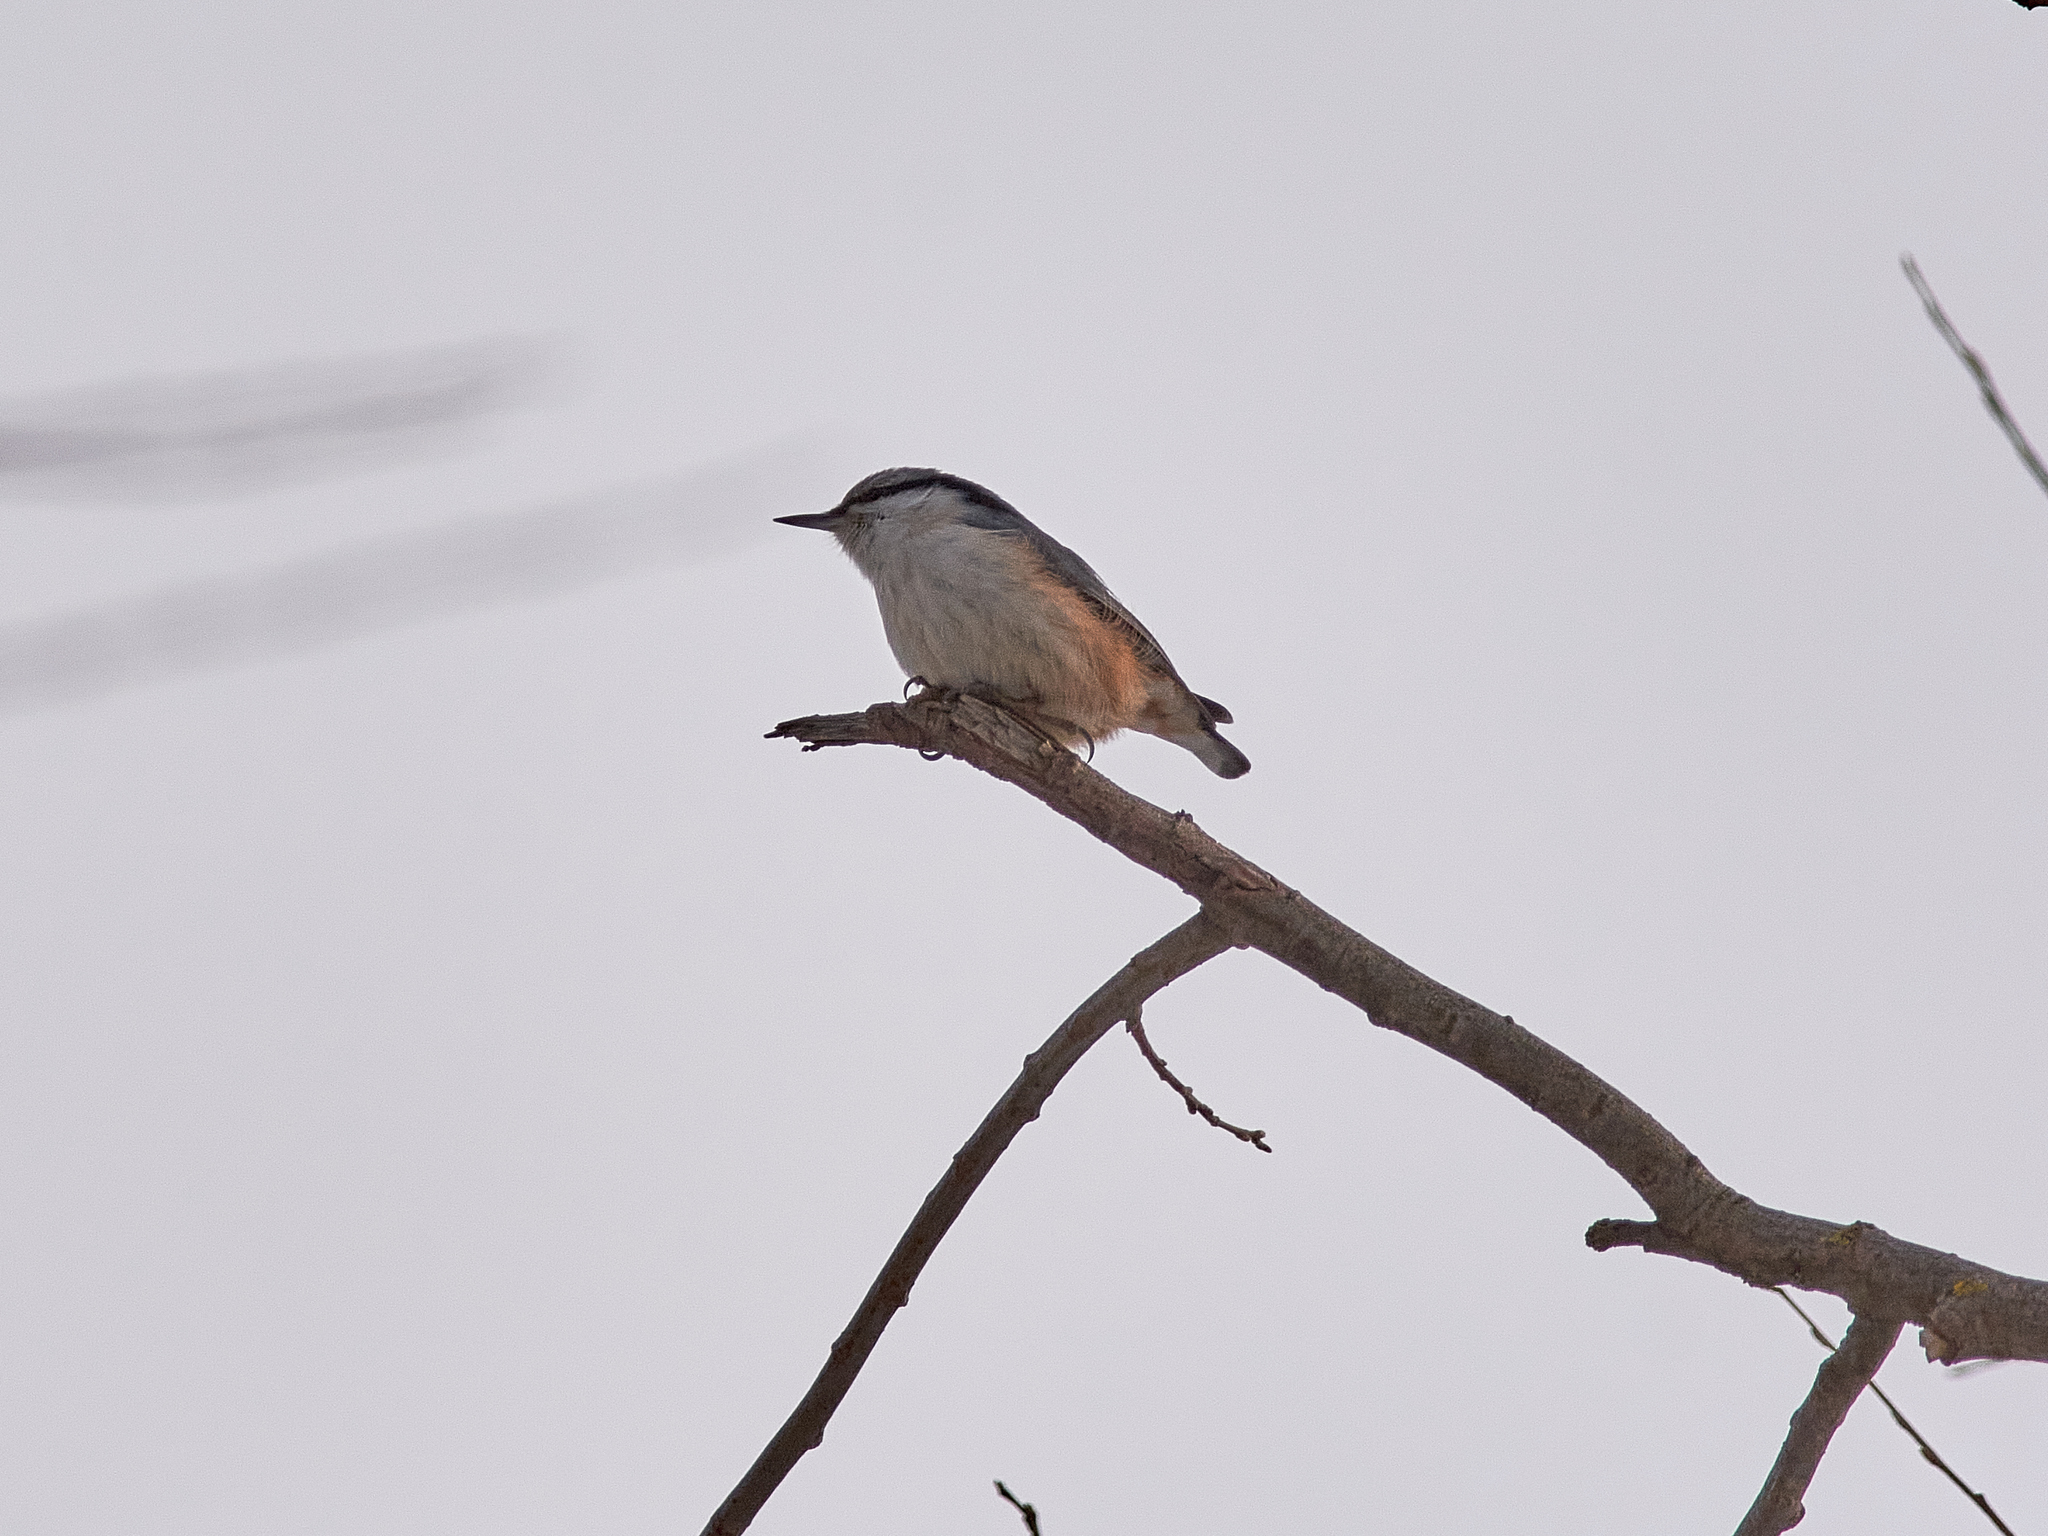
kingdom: Animalia
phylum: Chordata
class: Aves
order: Passeriformes
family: Sittidae
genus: Sitta
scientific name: Sitta europaea
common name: Eurasian nuthatch
